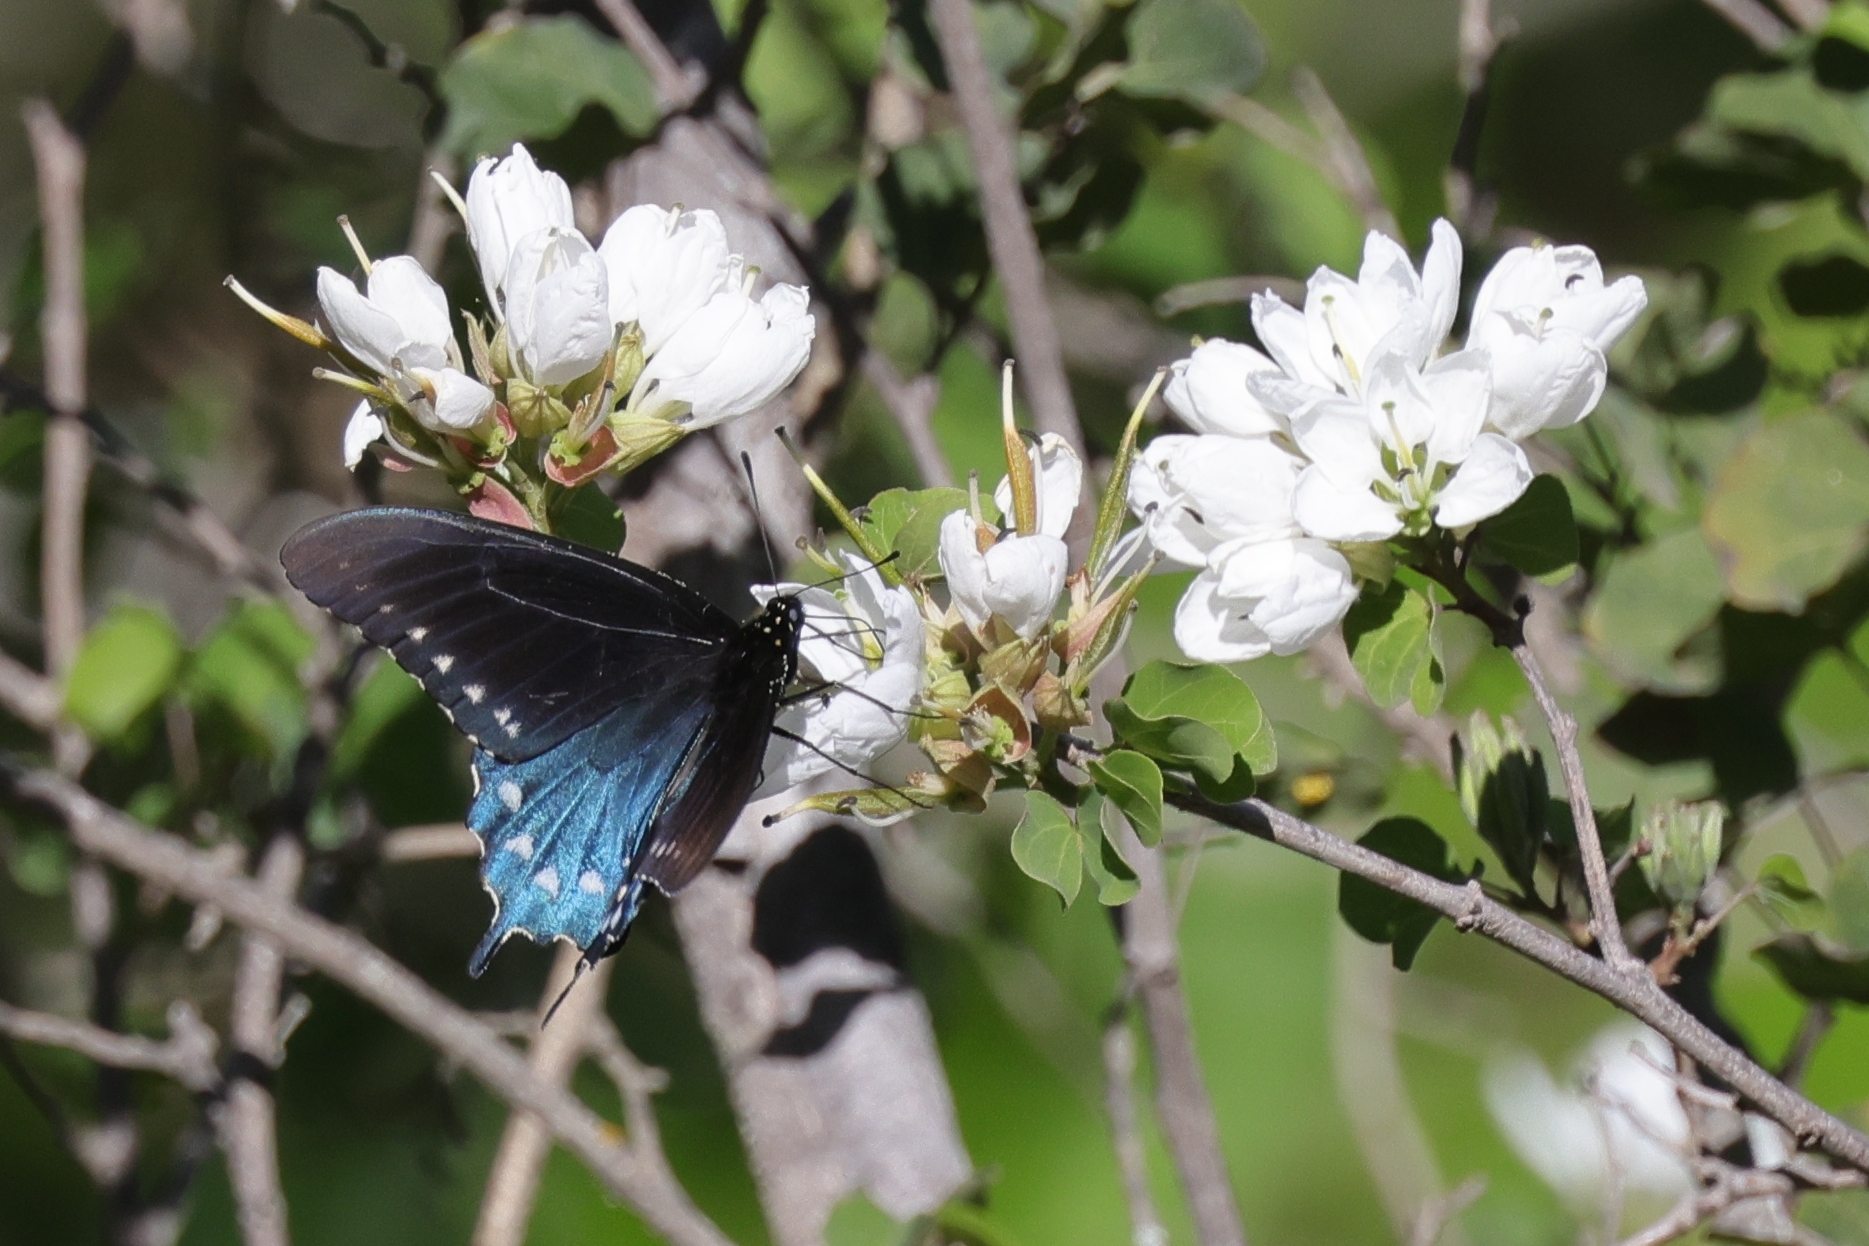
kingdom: Animalia
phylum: Arthropoda
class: Insecta
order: Lepidoptera
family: Papilionidae
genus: Battus
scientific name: Battus philenor
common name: Pipevine swallowtail
